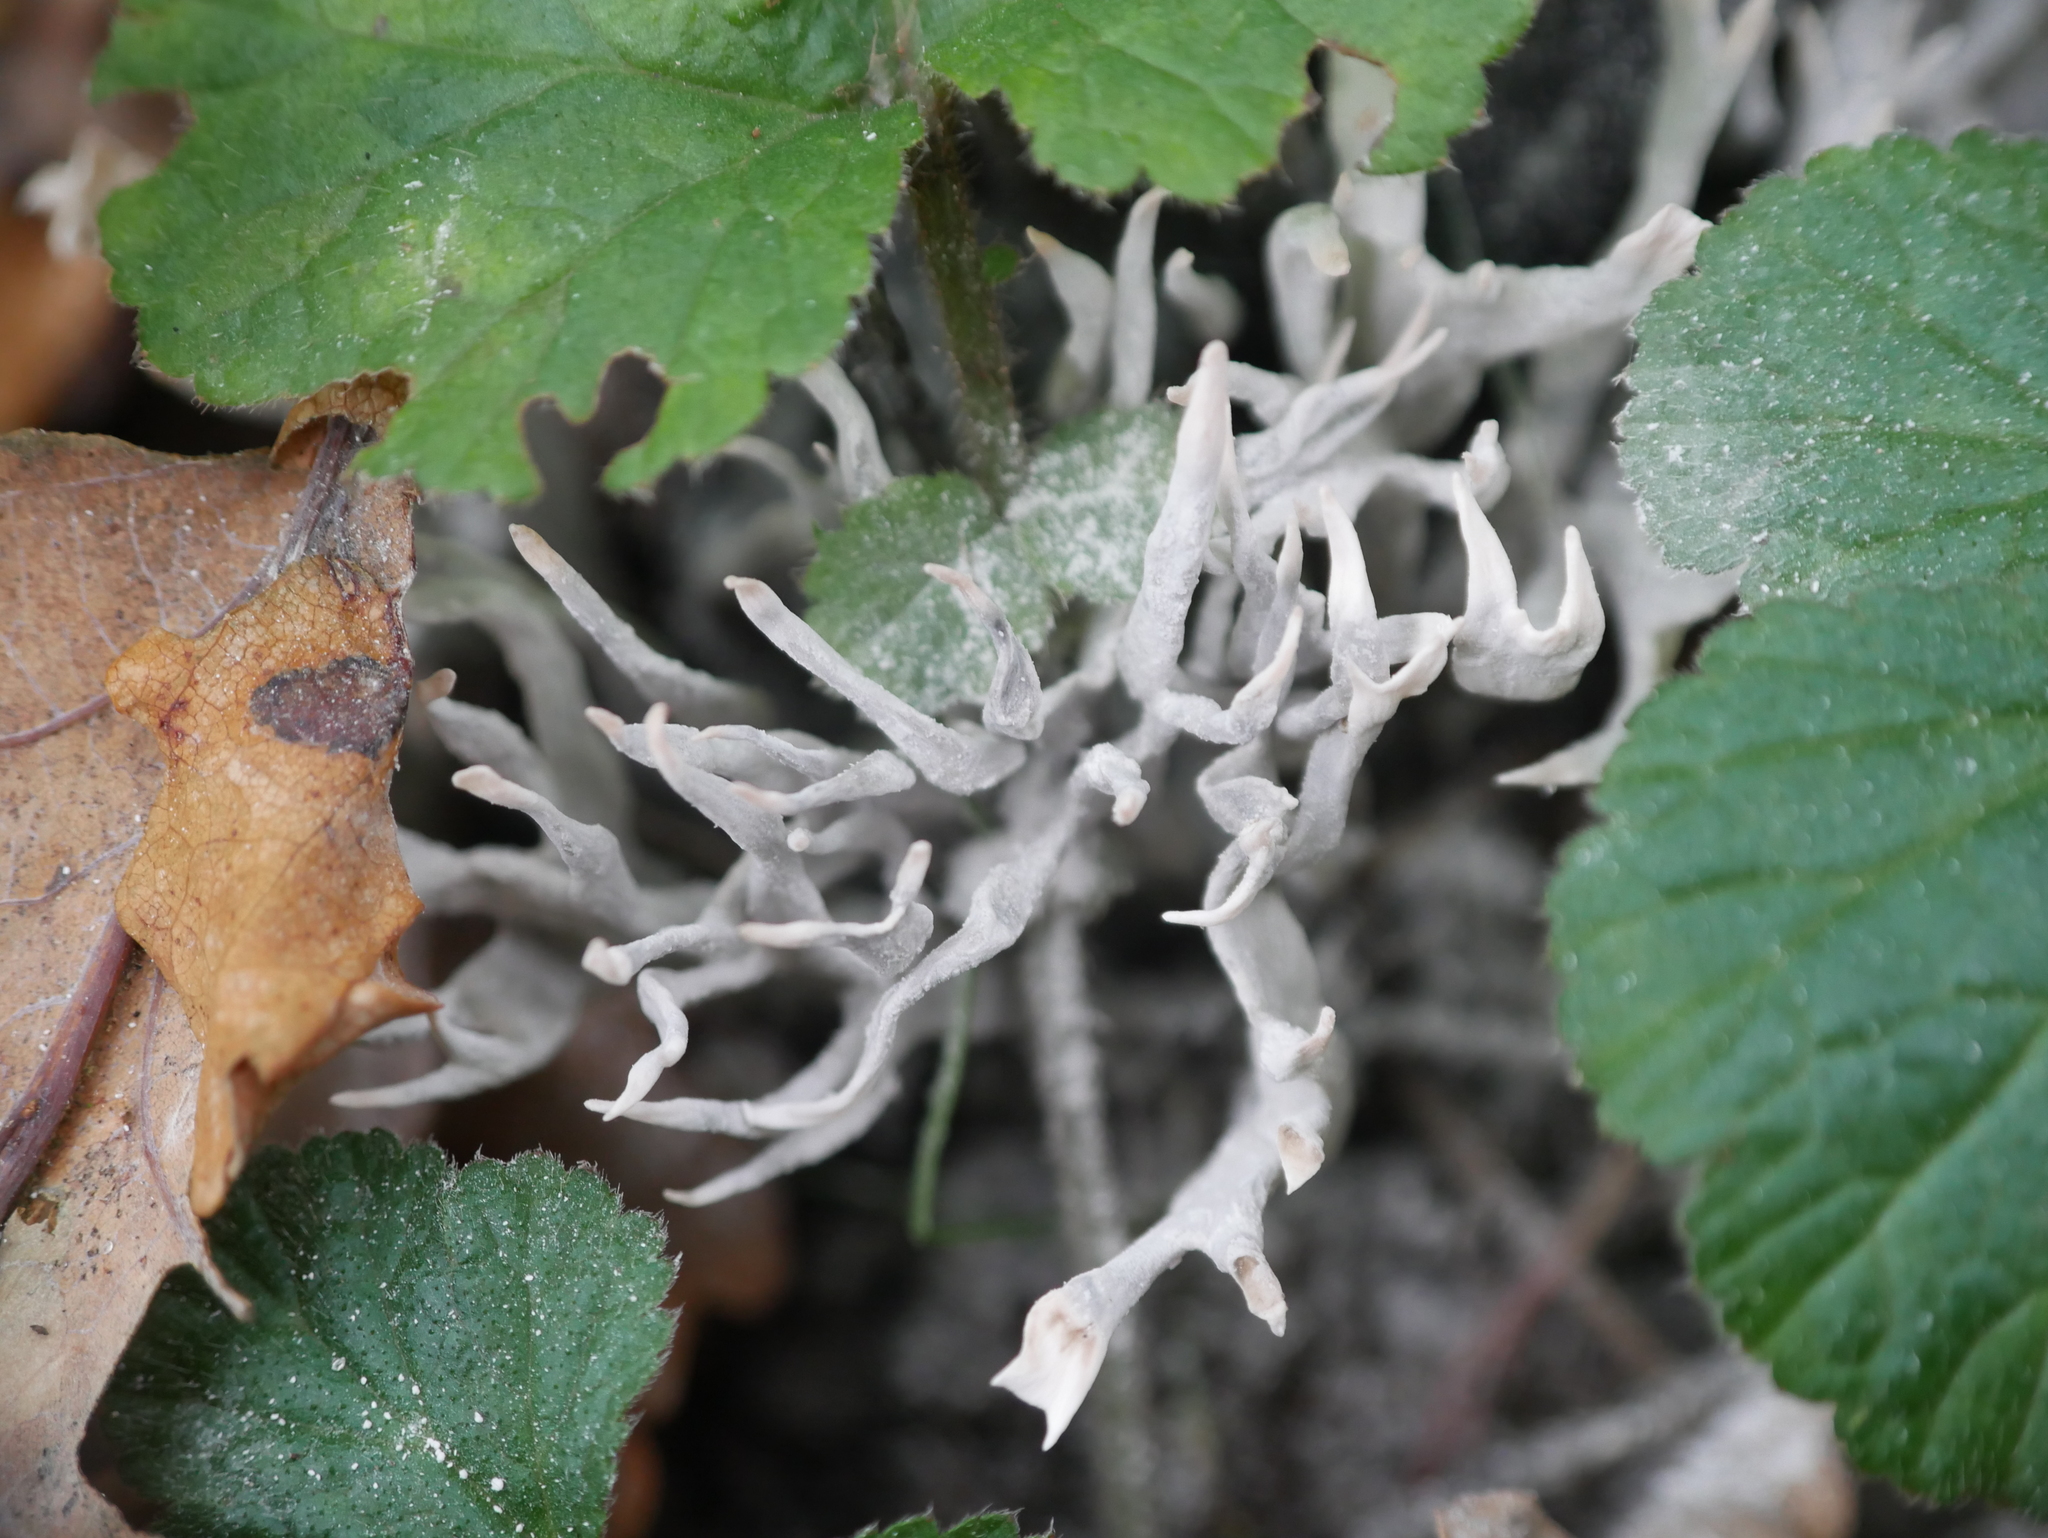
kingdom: Fungi
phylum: Ascomycota
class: Sordariomycetes
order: Xylariales
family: Xylariaceae
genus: Xylaria
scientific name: Xylaria hypoxylon
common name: Candle-snuff fungus
